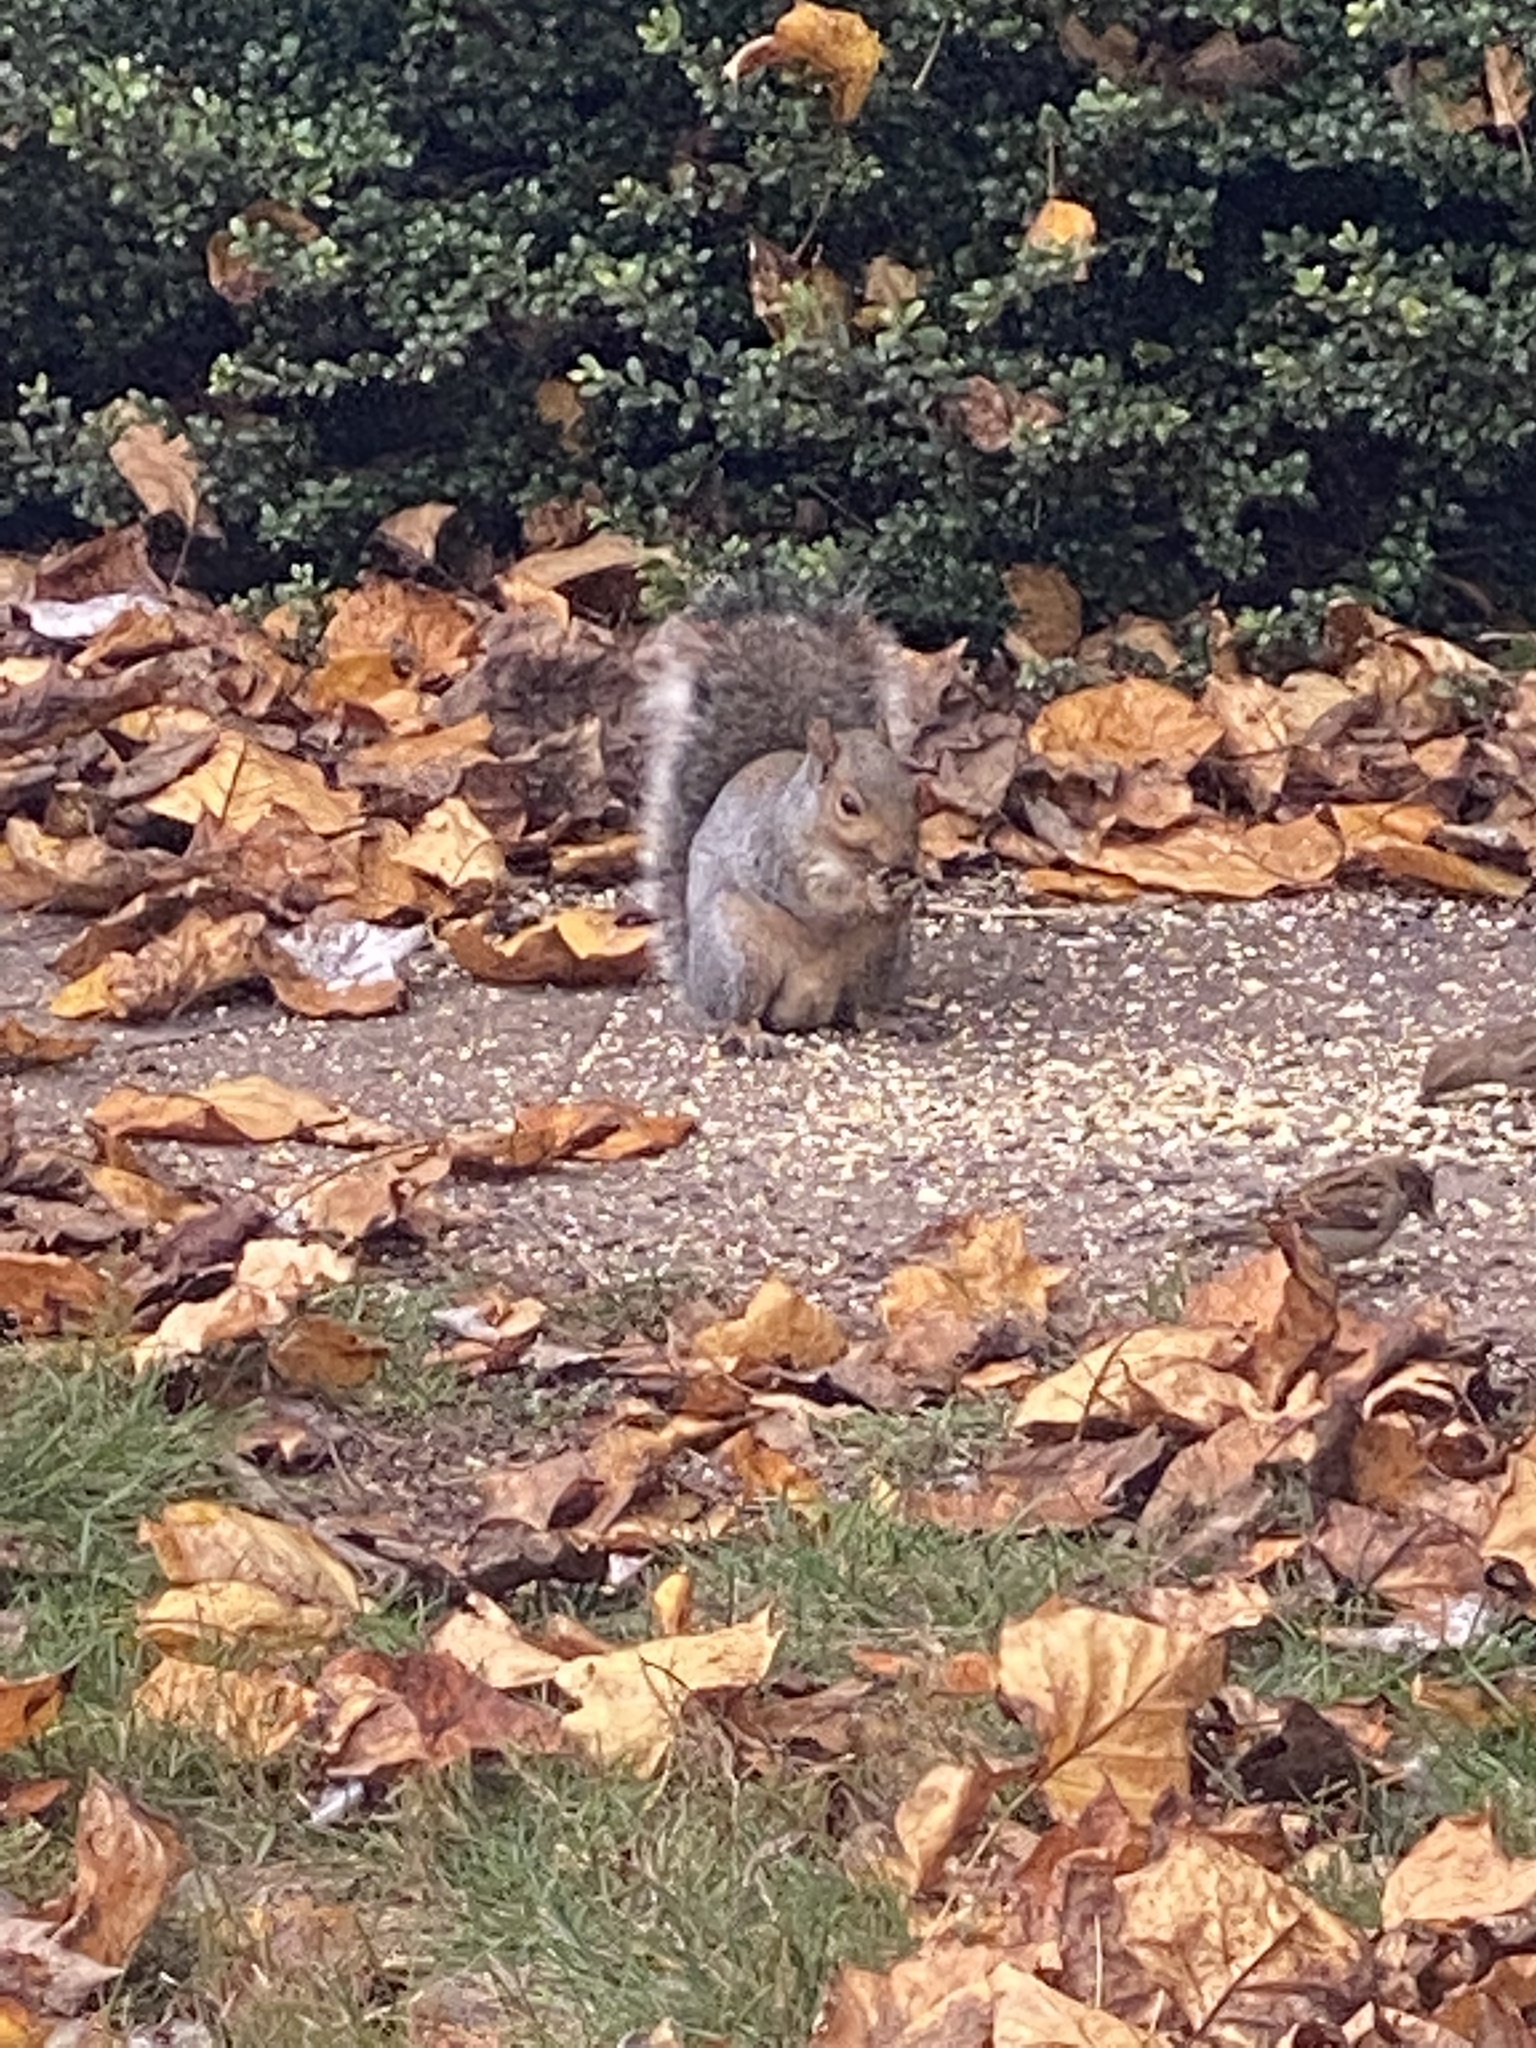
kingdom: Animalia
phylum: Chordata
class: Mammalia
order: Rodentia
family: Sciuridae
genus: Sciurus
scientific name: Sciurus carolinensis
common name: Eastern gray squirrel
